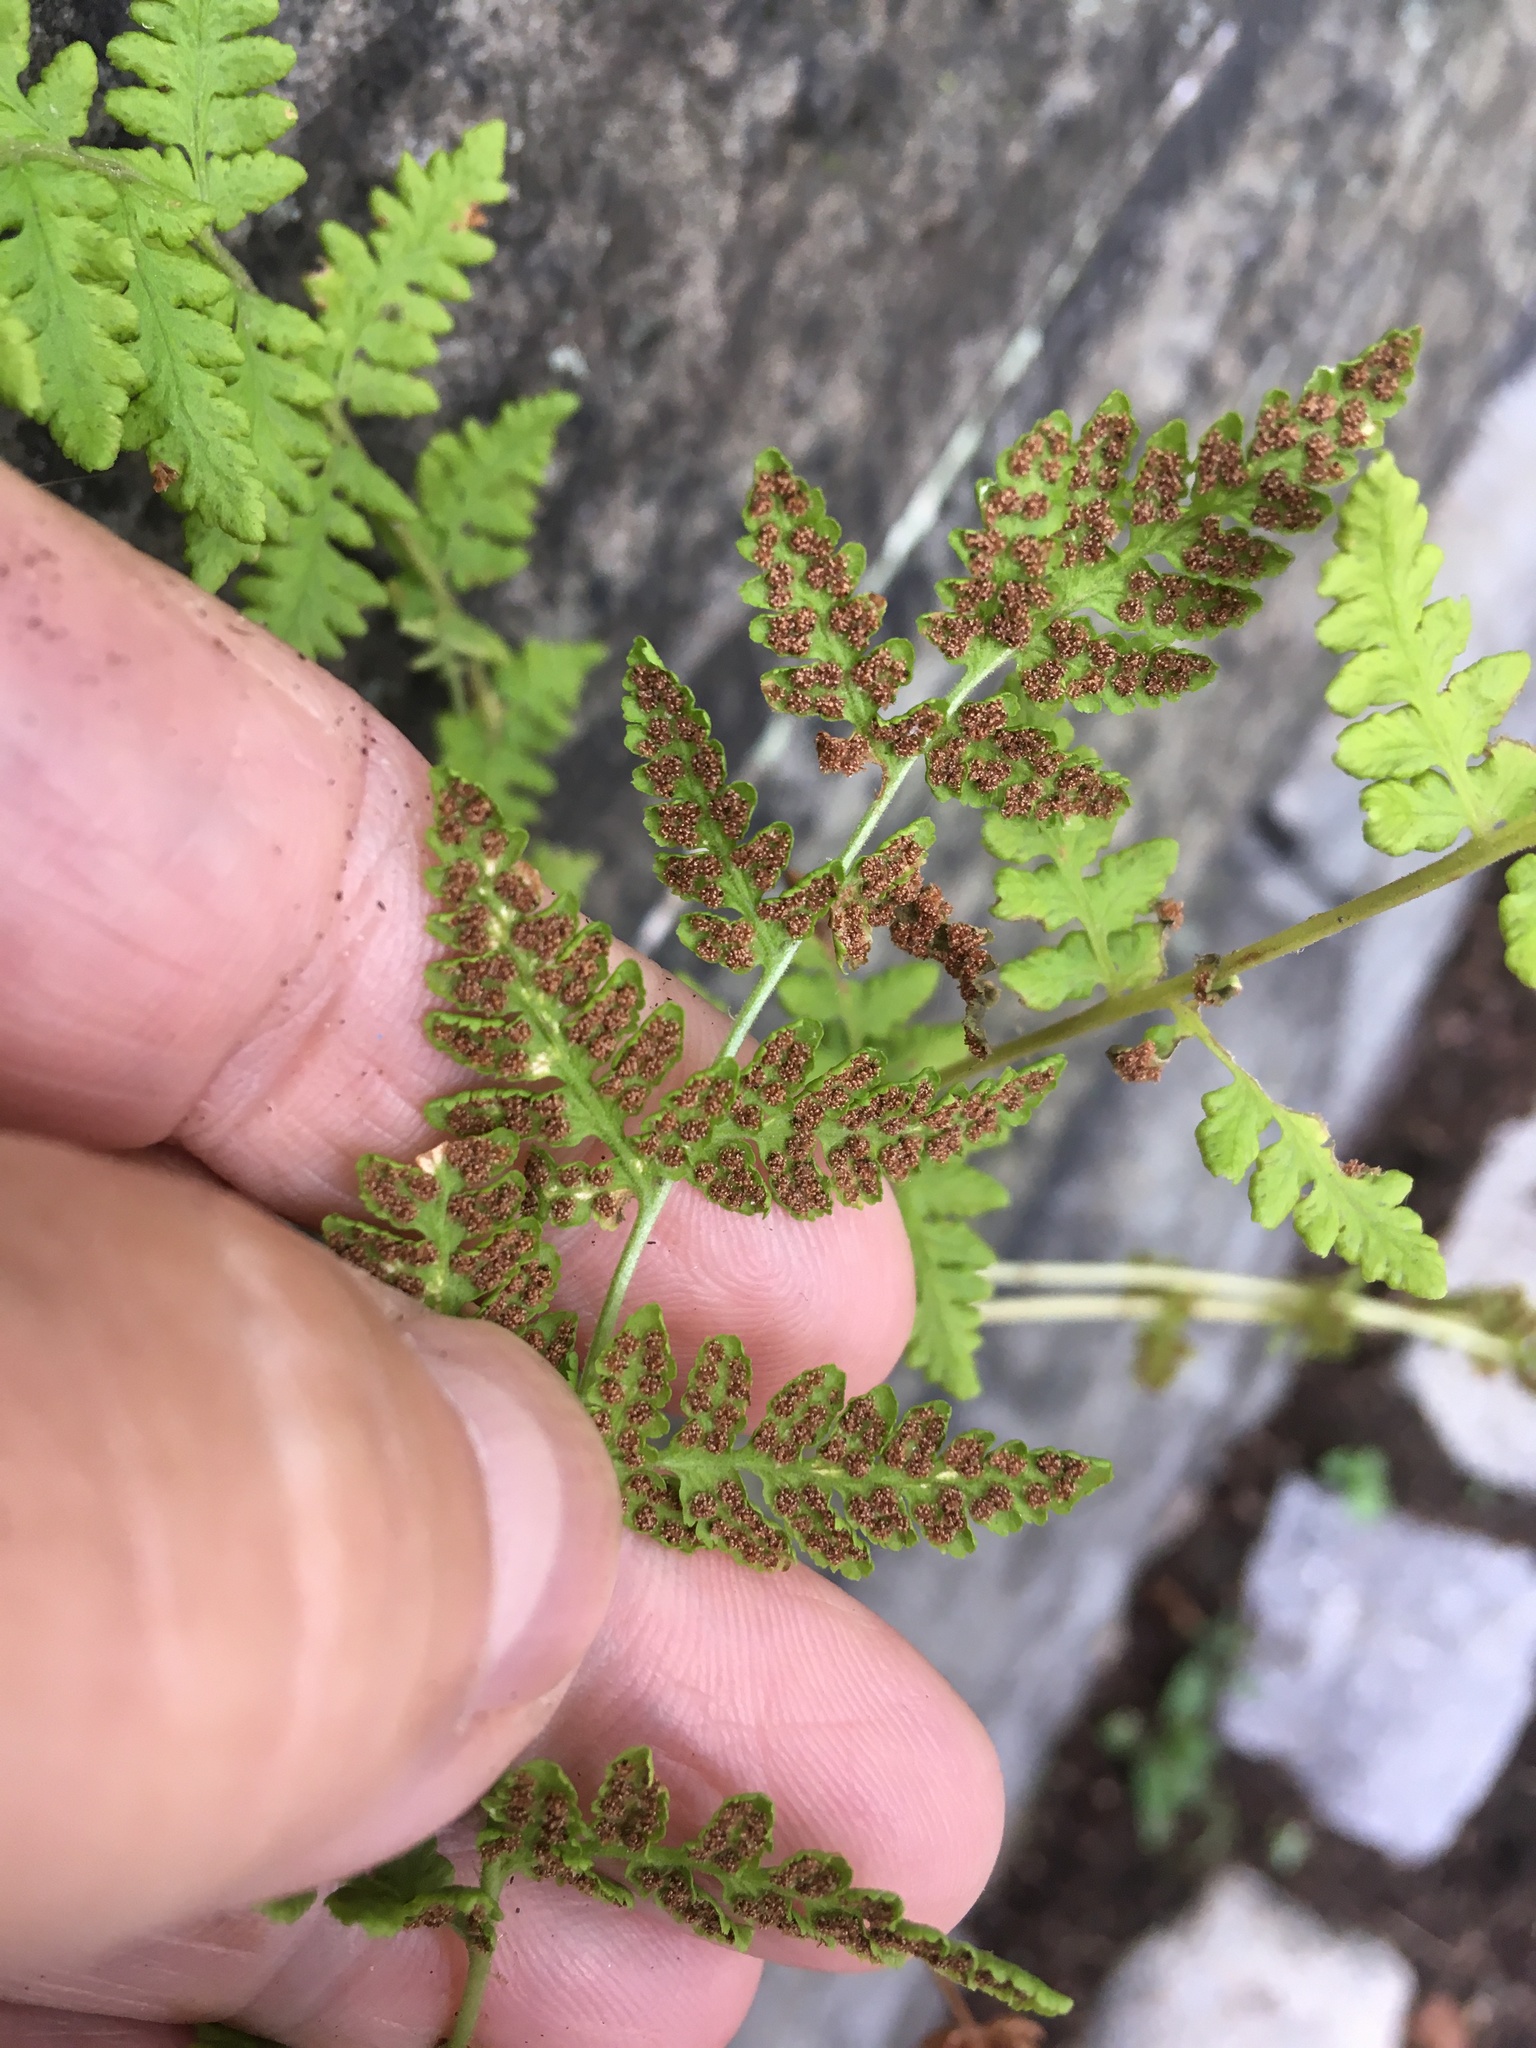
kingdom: Plantae
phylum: Tracheophyta
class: Polypodiopsida
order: Polypodiales
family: Woodsiaceae
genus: Physematium
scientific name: Physematium obtusum
